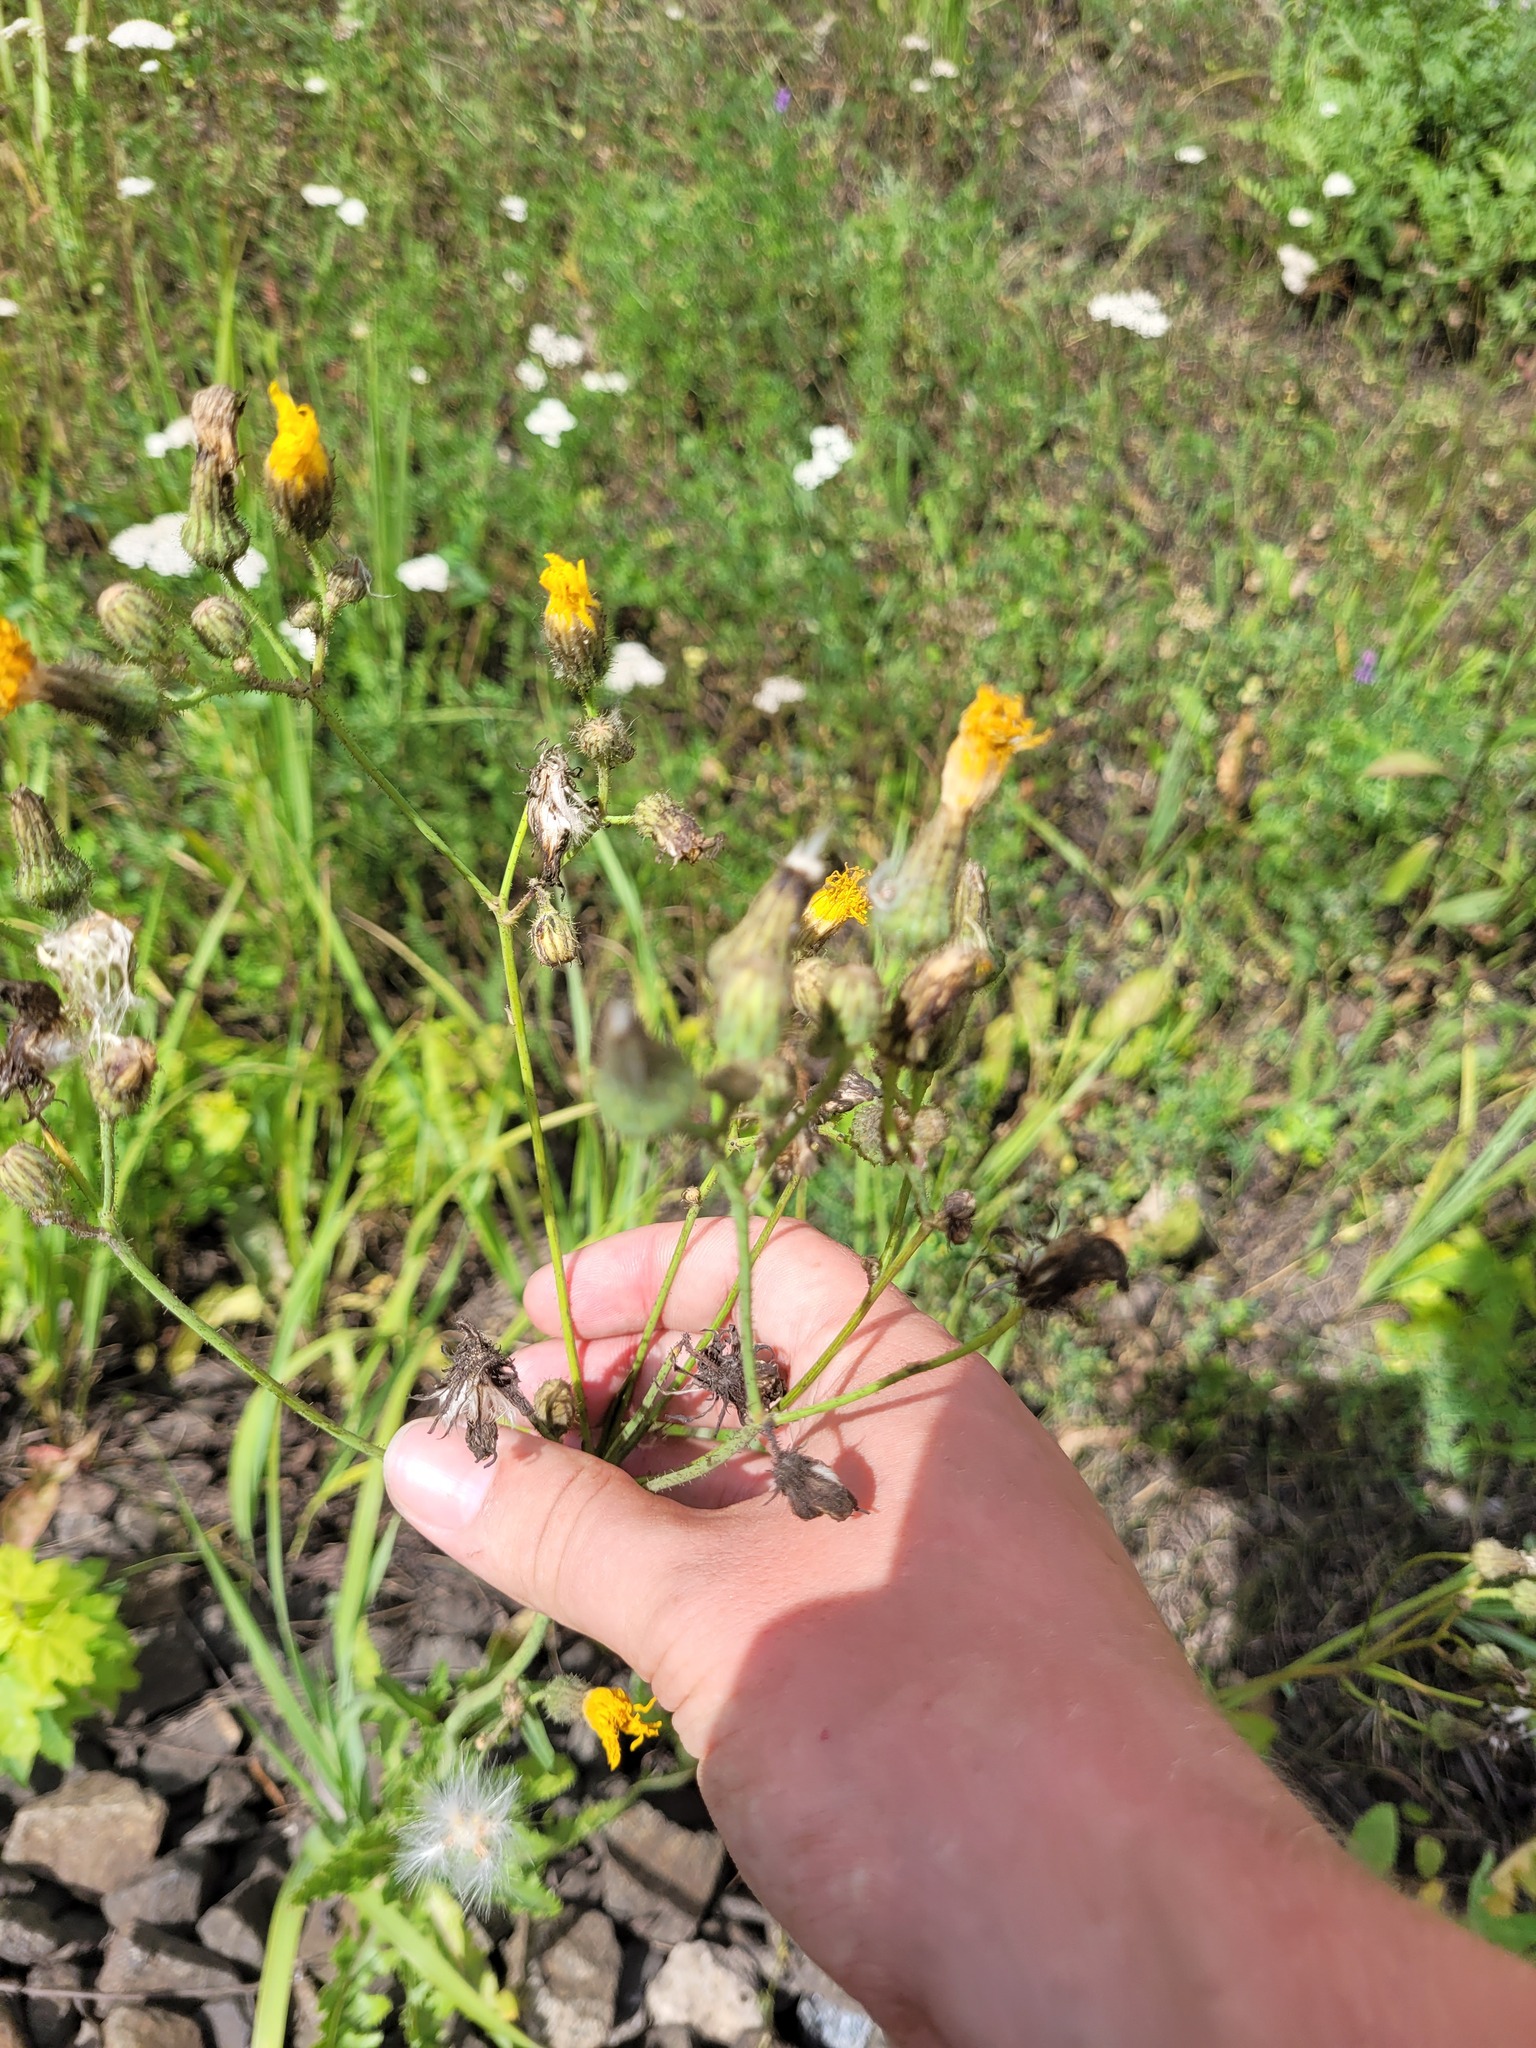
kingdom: Plantae
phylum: Tracheophyta
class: Magnoliopsida
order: Asterales
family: Asteraceae
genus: Sonchus
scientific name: Sonchus arvensis
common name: Perennial sow-thistle
